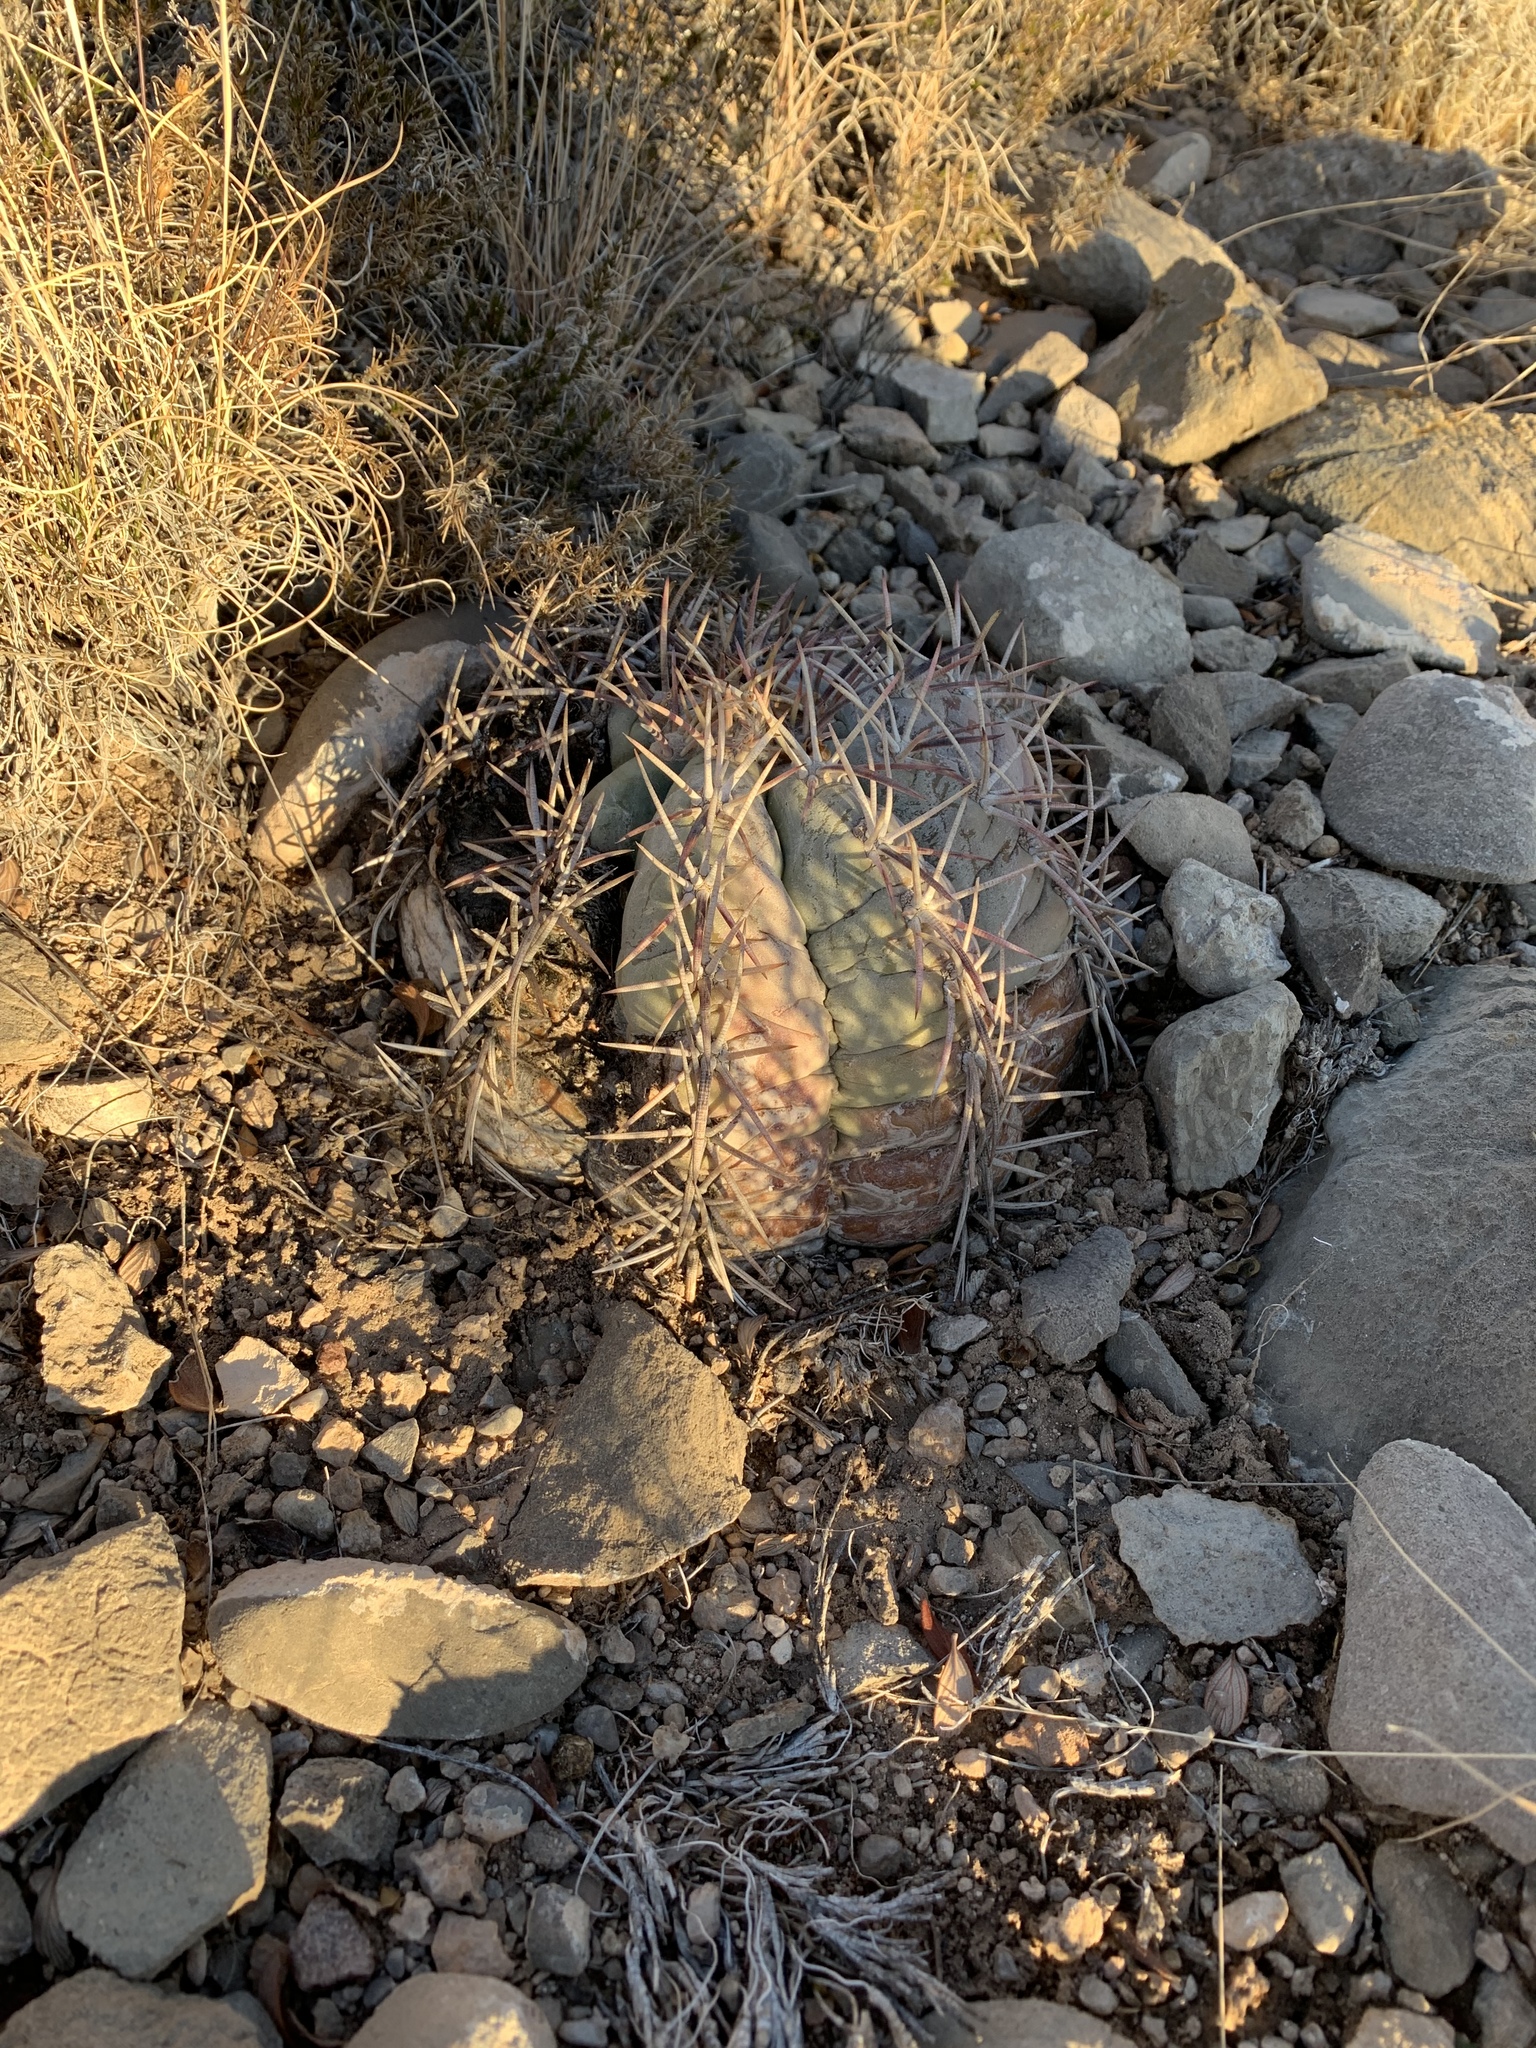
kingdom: Plantae
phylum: Tracheophyta
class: Magnoliopsida
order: Caryophyllales
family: Cactaceae
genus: Echinocactus
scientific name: Echinocactus horizonthalonius
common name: Devilshead
